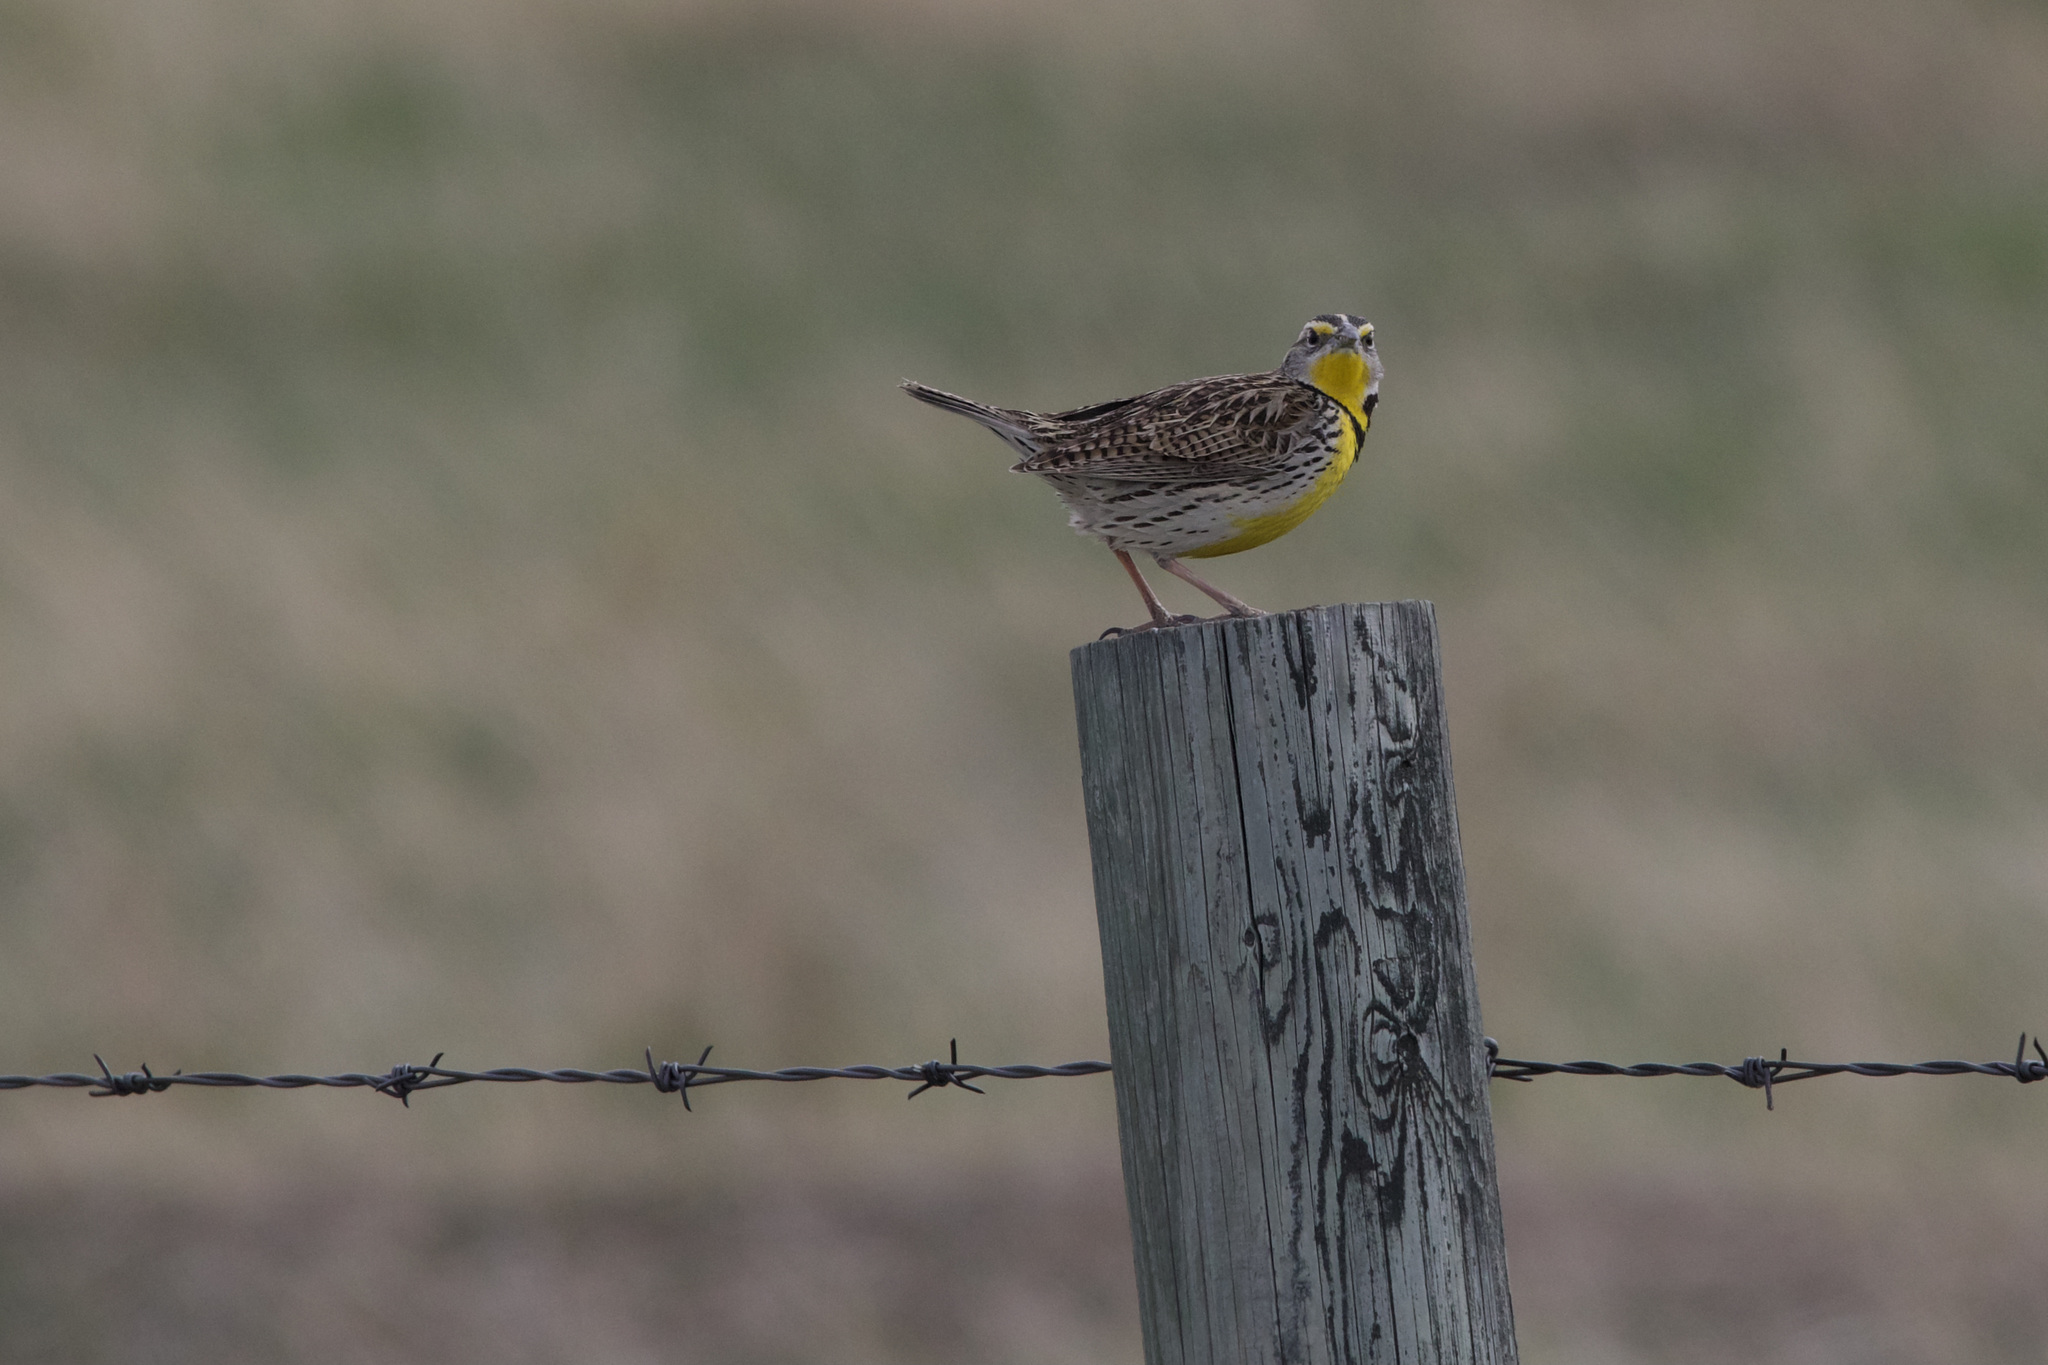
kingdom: Animalia
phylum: Chordata
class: Aves
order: Passeriformes
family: Icteridae
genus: Sturnella
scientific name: Sturnella neglecta
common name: Western meadowlark
